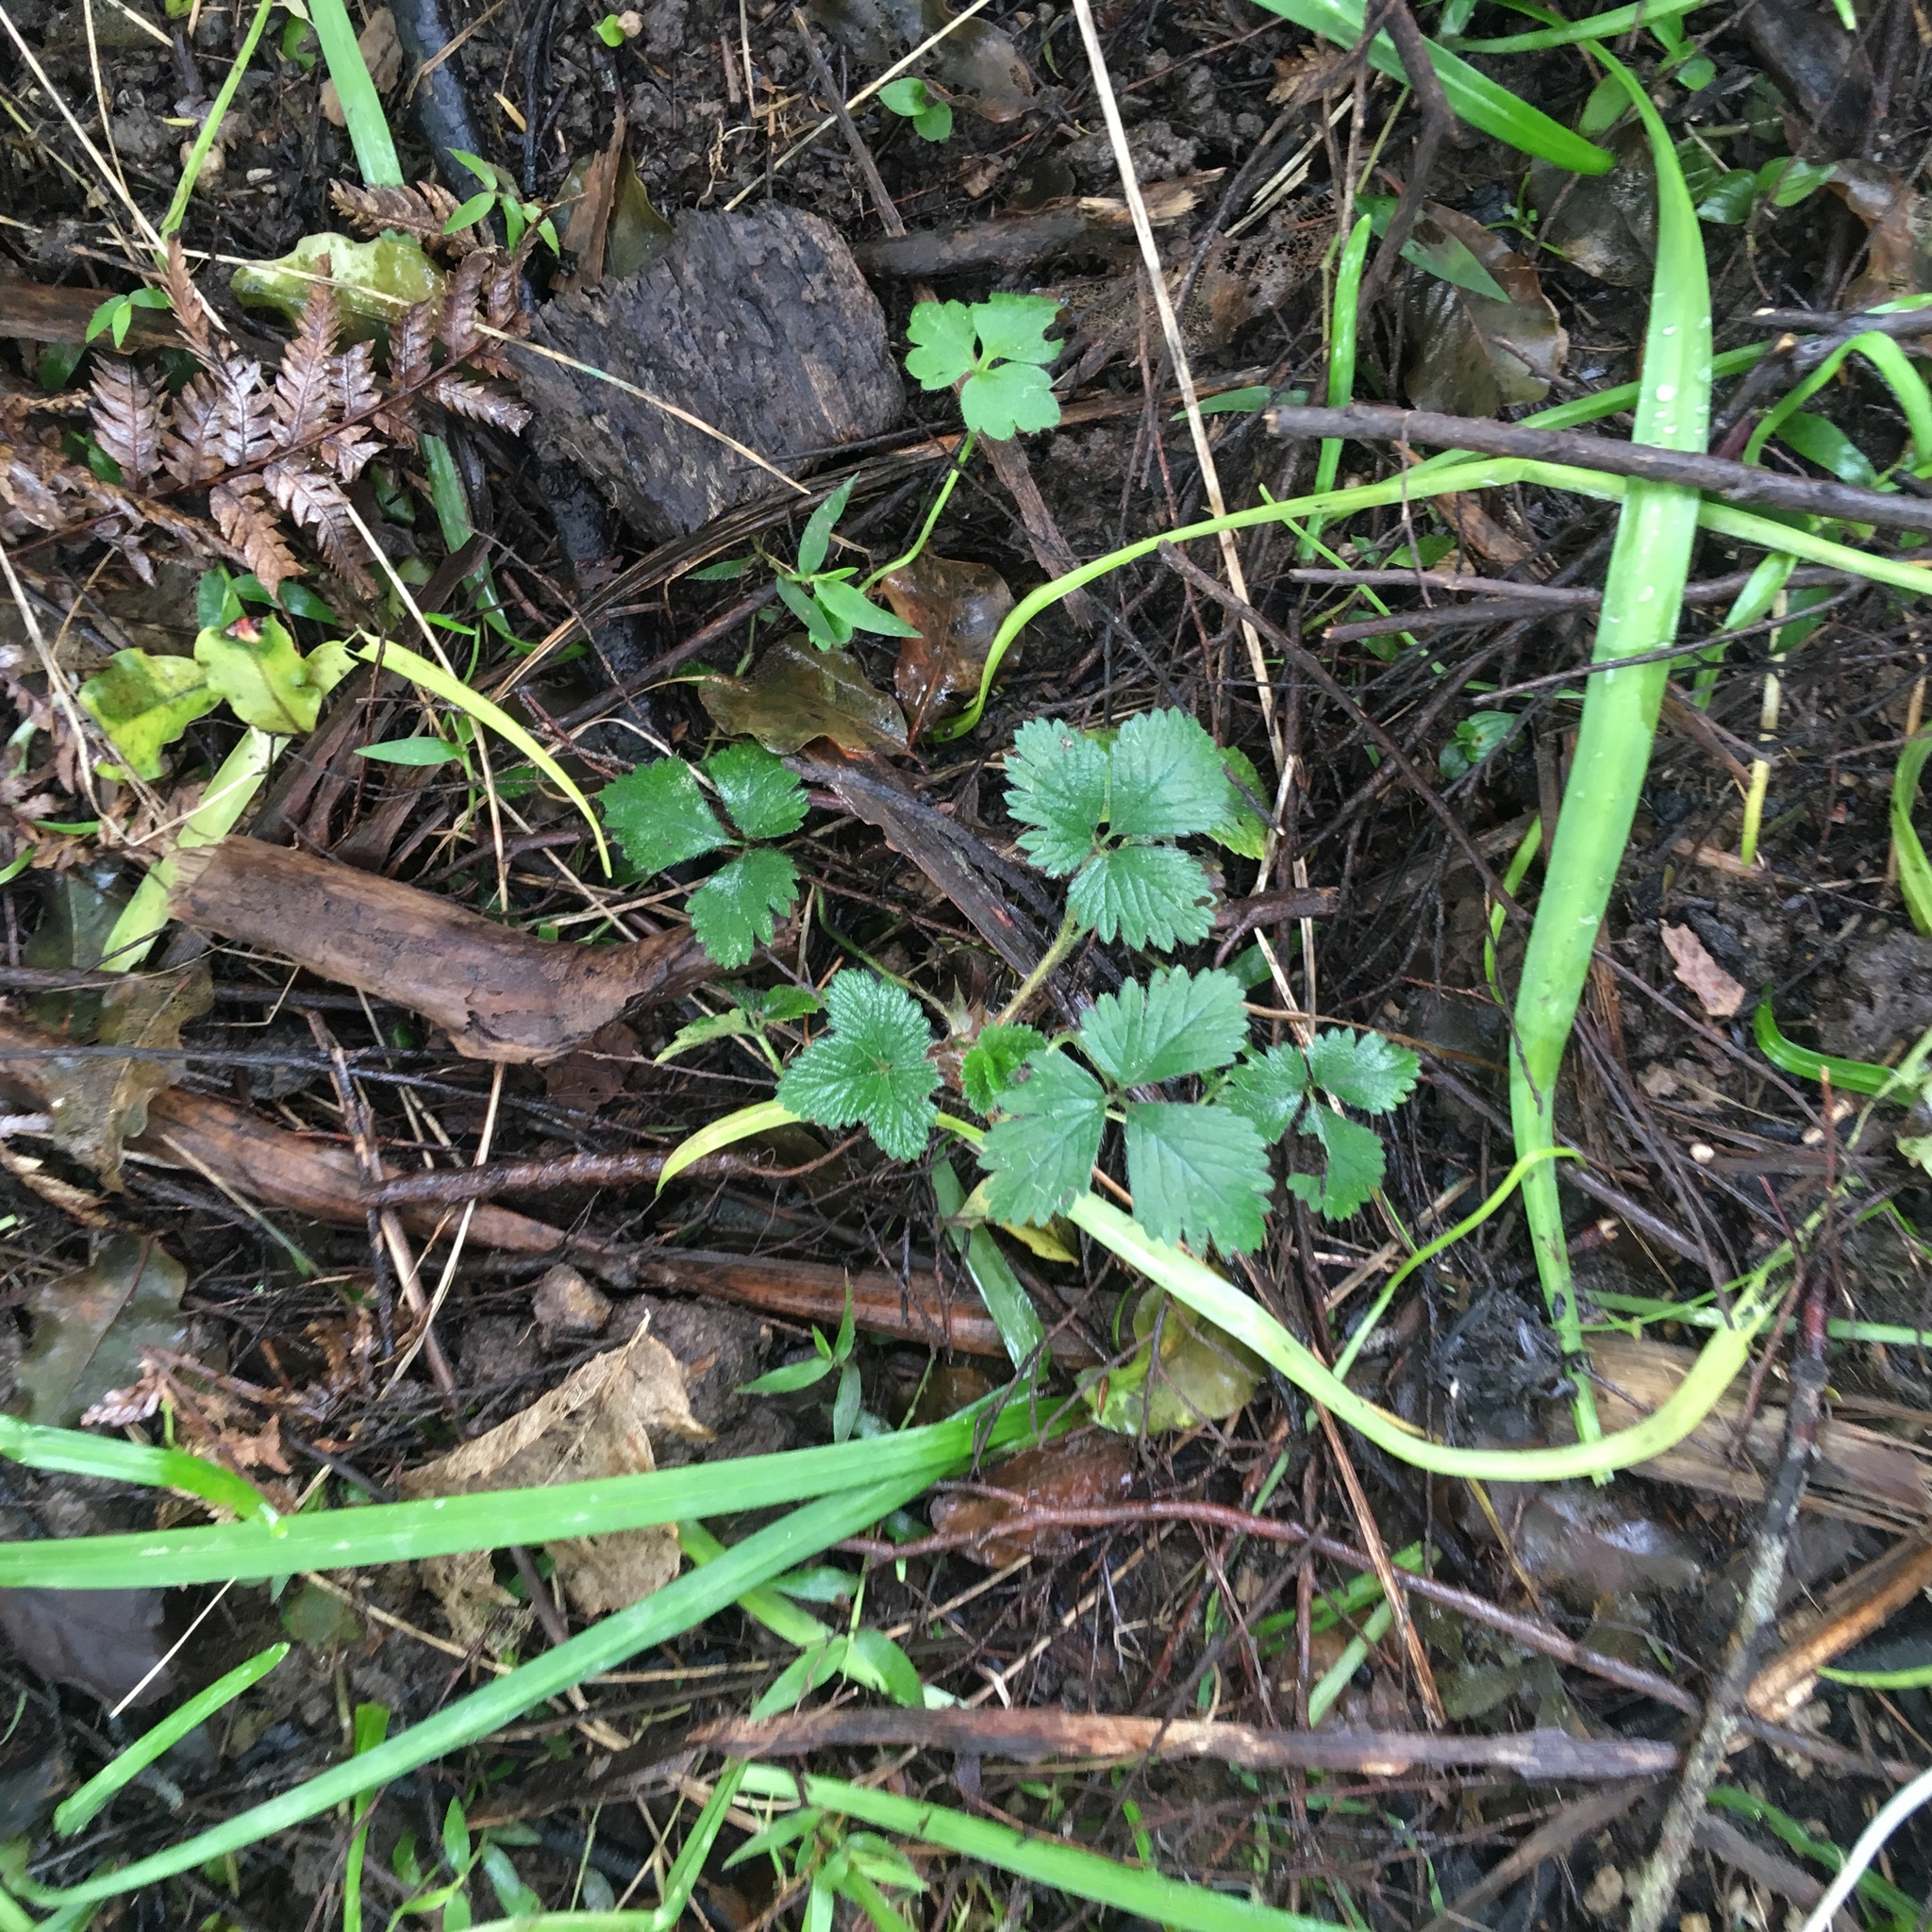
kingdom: Plantae
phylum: Tracheophyta
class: Magnoliopsida
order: Rosales
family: Rosaceae
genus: Potentilla
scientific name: Potentilla indica
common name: Yellow-flowered strawberry
